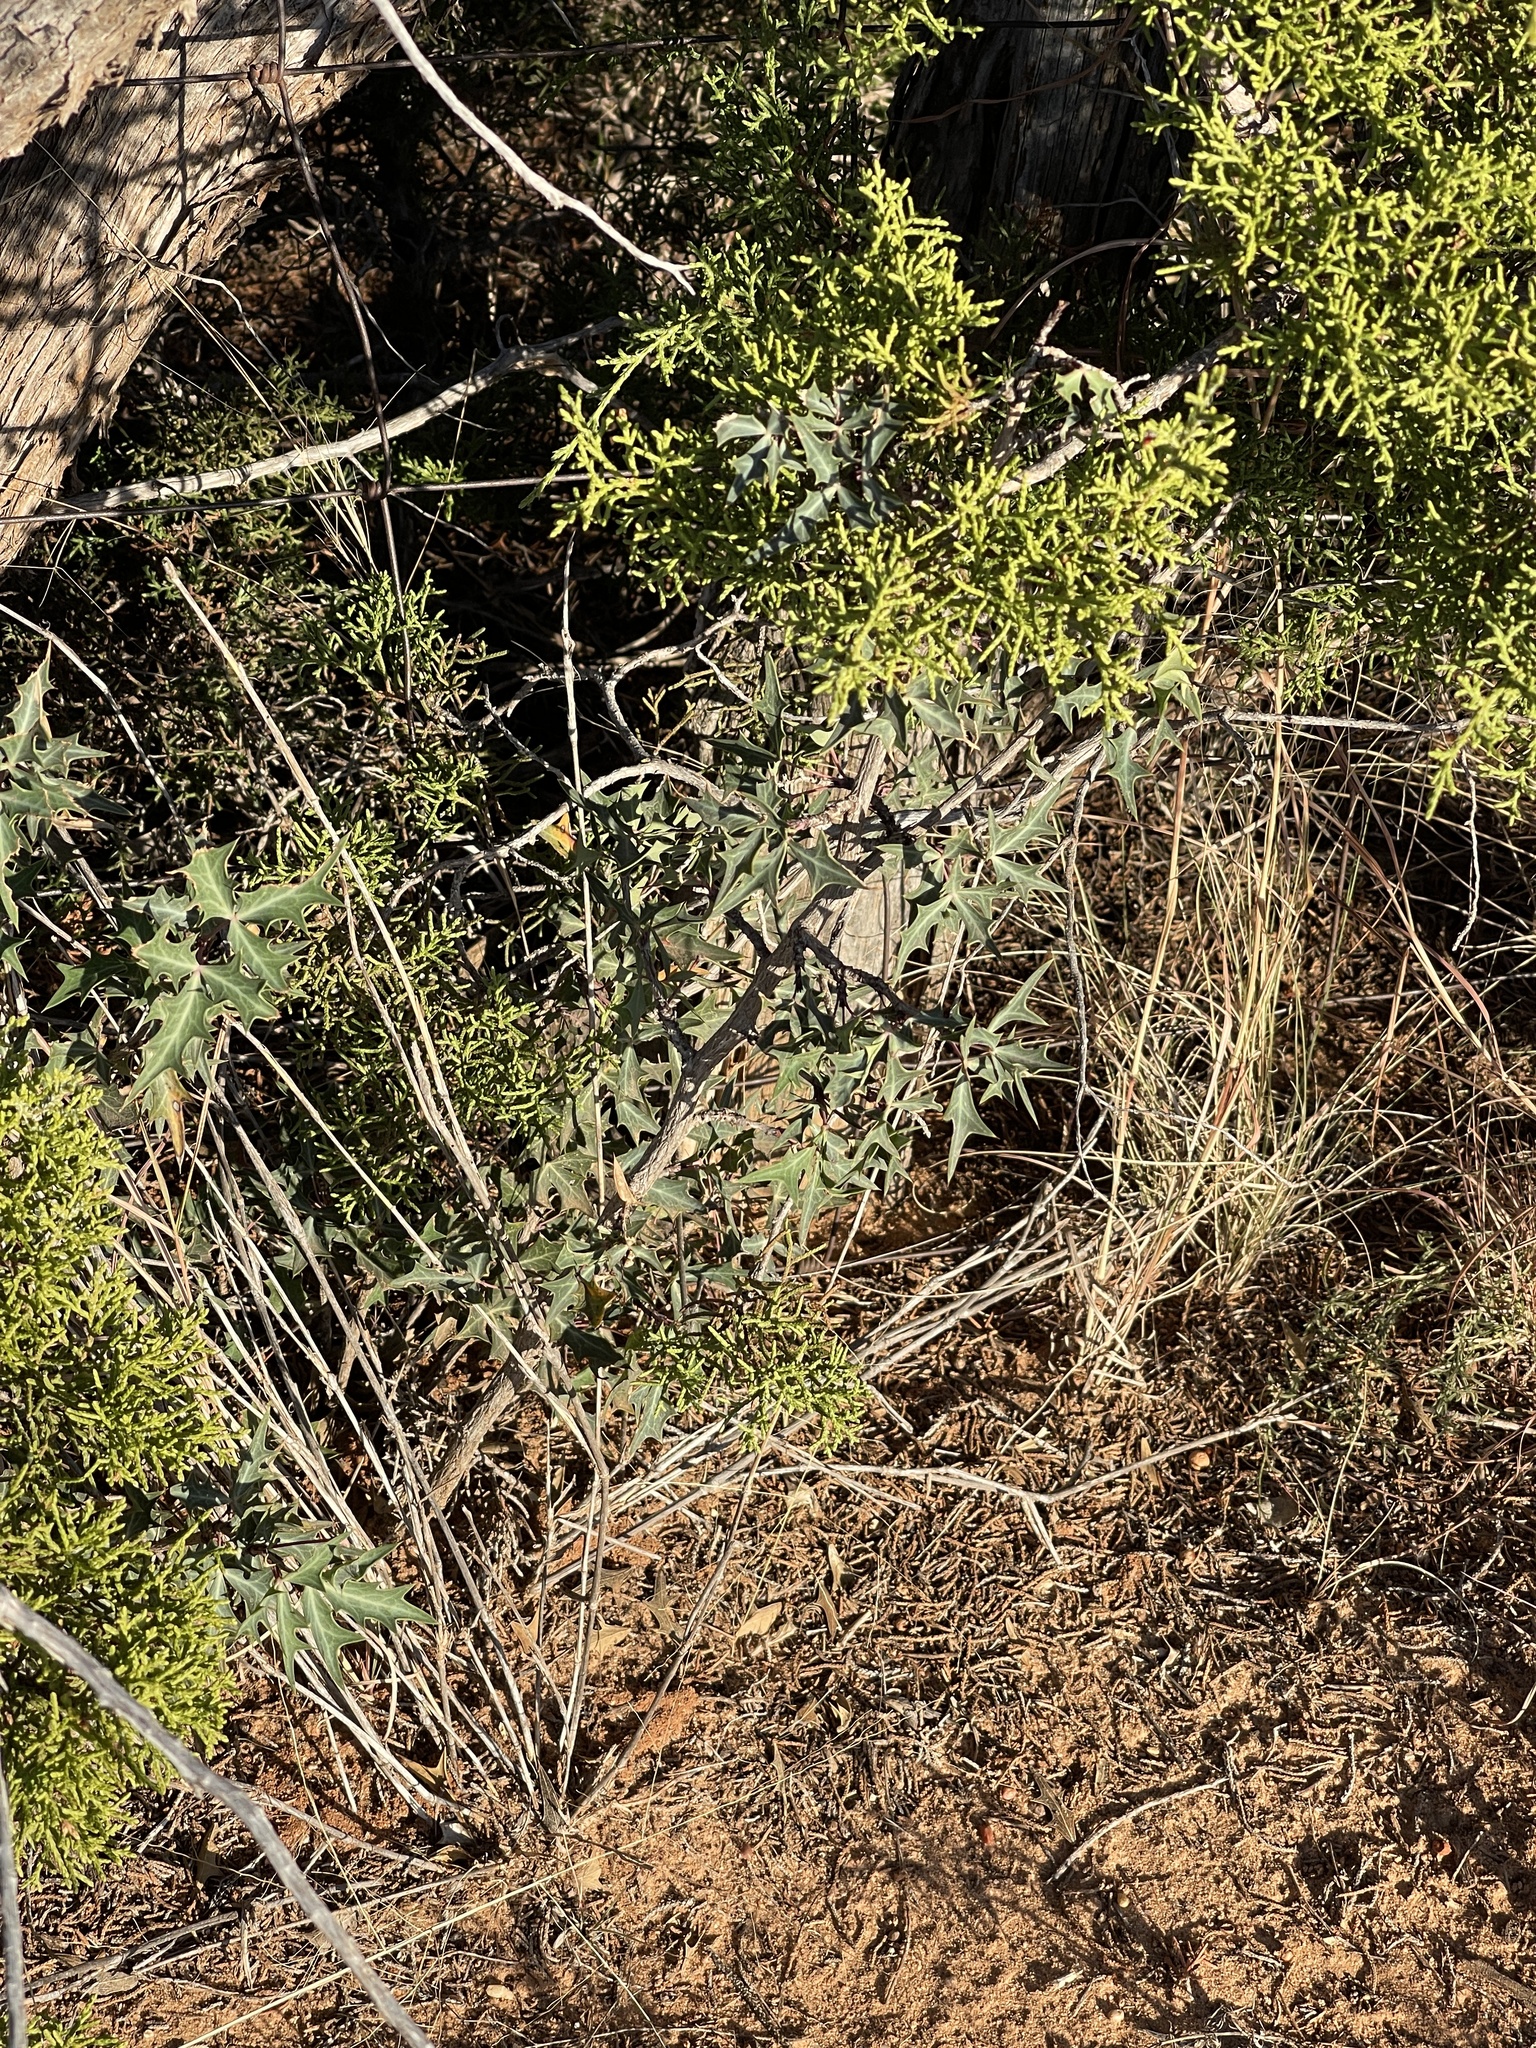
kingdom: Plantae
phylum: Tracheophyta
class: Magnoliopsida
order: Ranunculales
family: Berberidaceae
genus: Alloberberis
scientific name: Alloberberis trifoliolata
